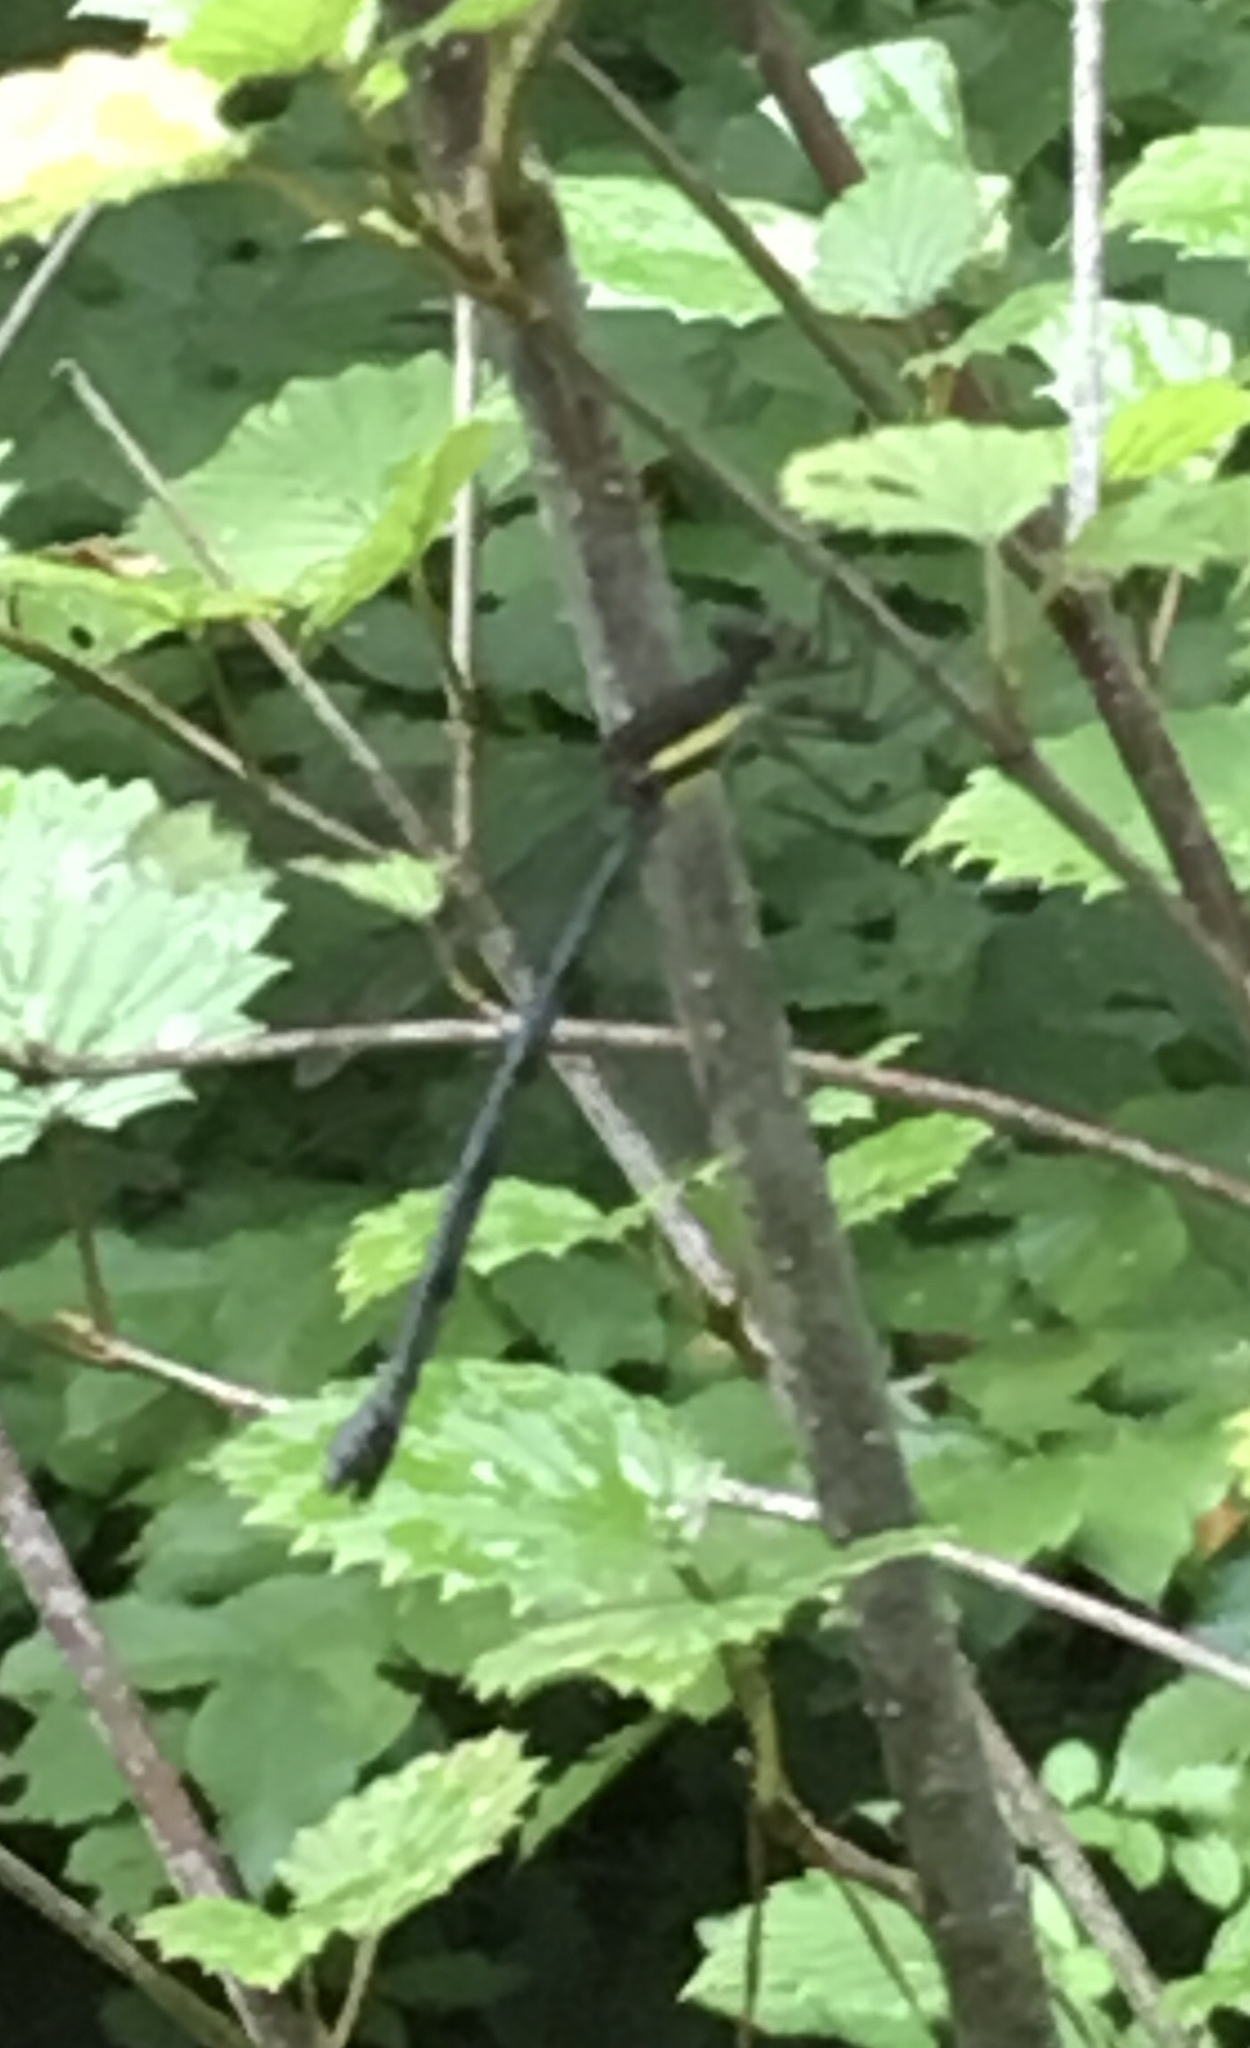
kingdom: Animalia
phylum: Arthropoda
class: Insecta
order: Odonata
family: Lestidae
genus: Archilestes
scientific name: Archilestes grandis
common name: Great spreadwing
